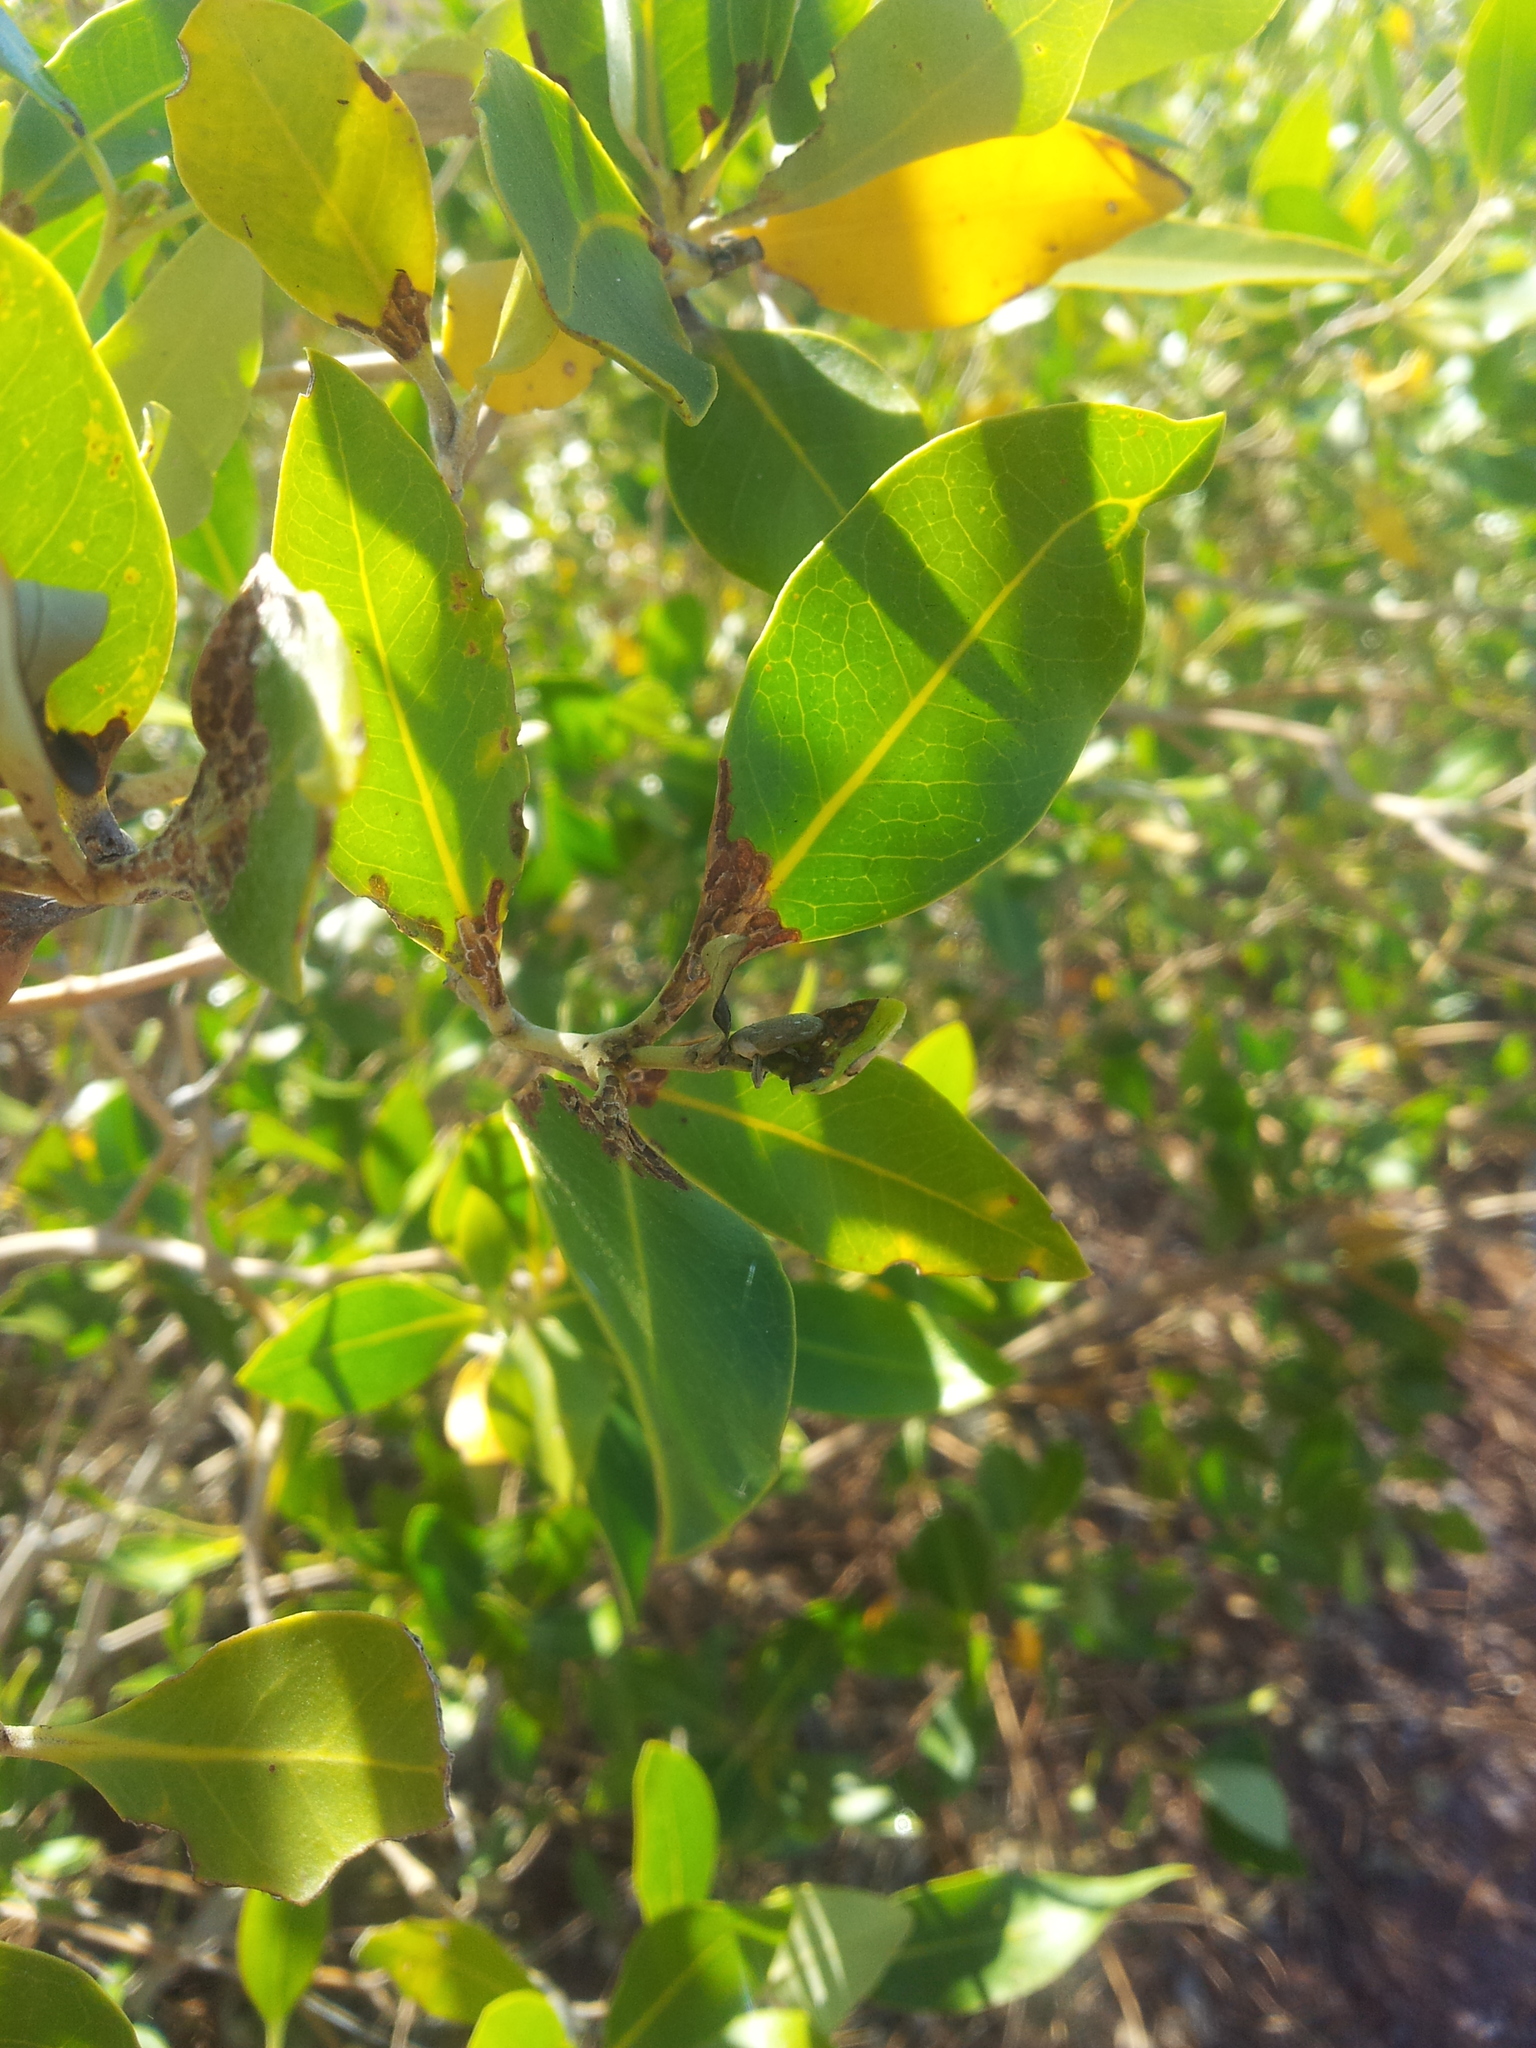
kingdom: Animalia
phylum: Arthropoda
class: Insecta
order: Coleoptera
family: Curculionidae
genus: Cylindralcides
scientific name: Cylindralcides bubo
